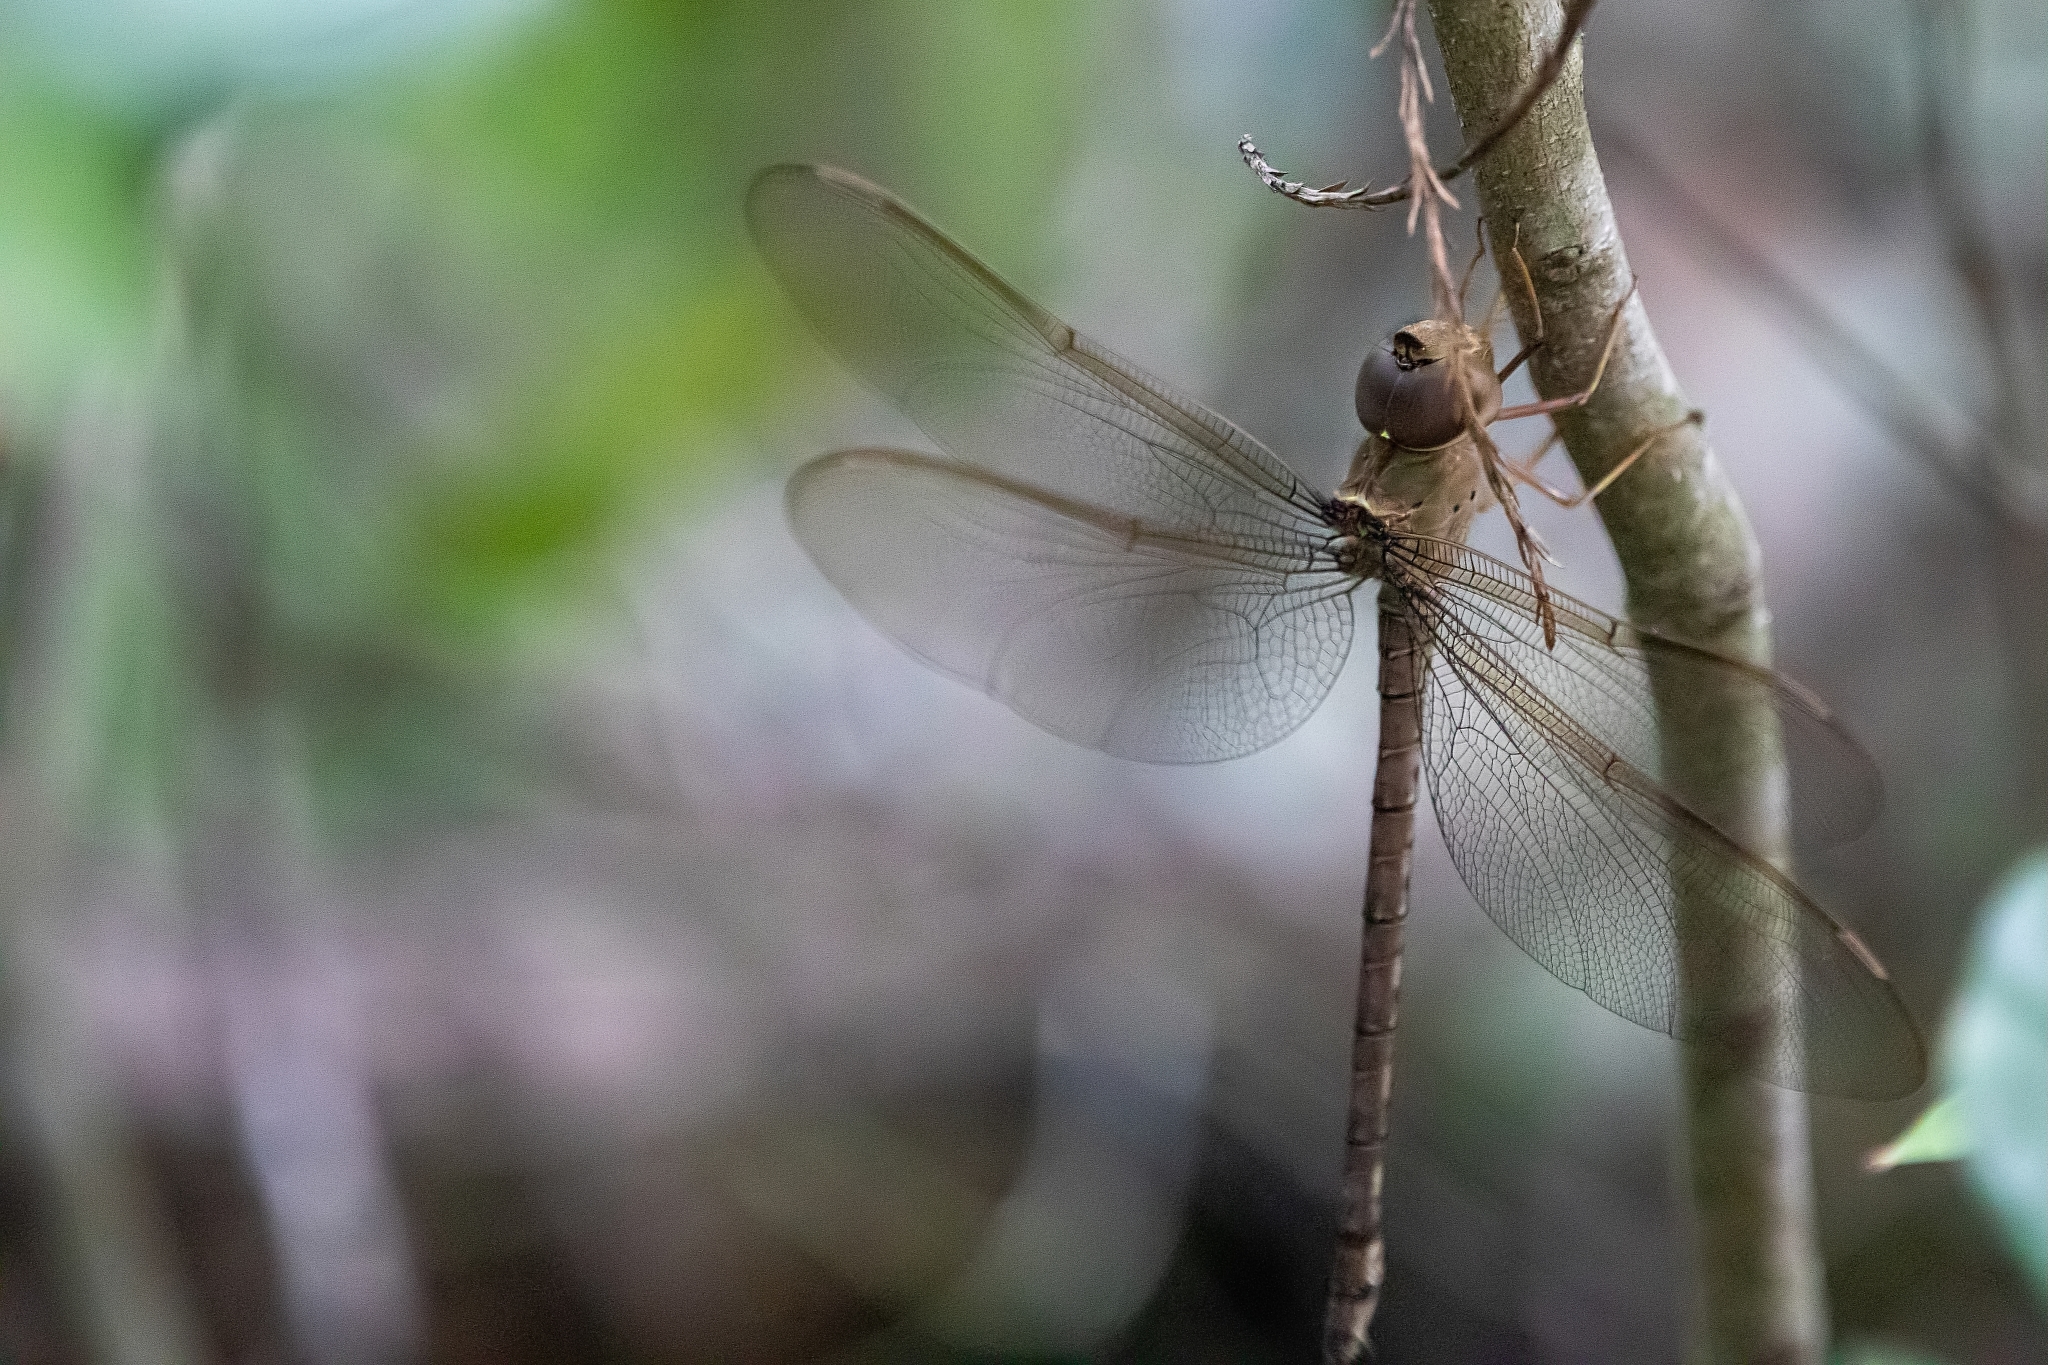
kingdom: Animalia
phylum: Arthropoda
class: Insecta
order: Odonata
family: Aeshnidae
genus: Gynacantha
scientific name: Gynacantha nervosa
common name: Twilight darner
